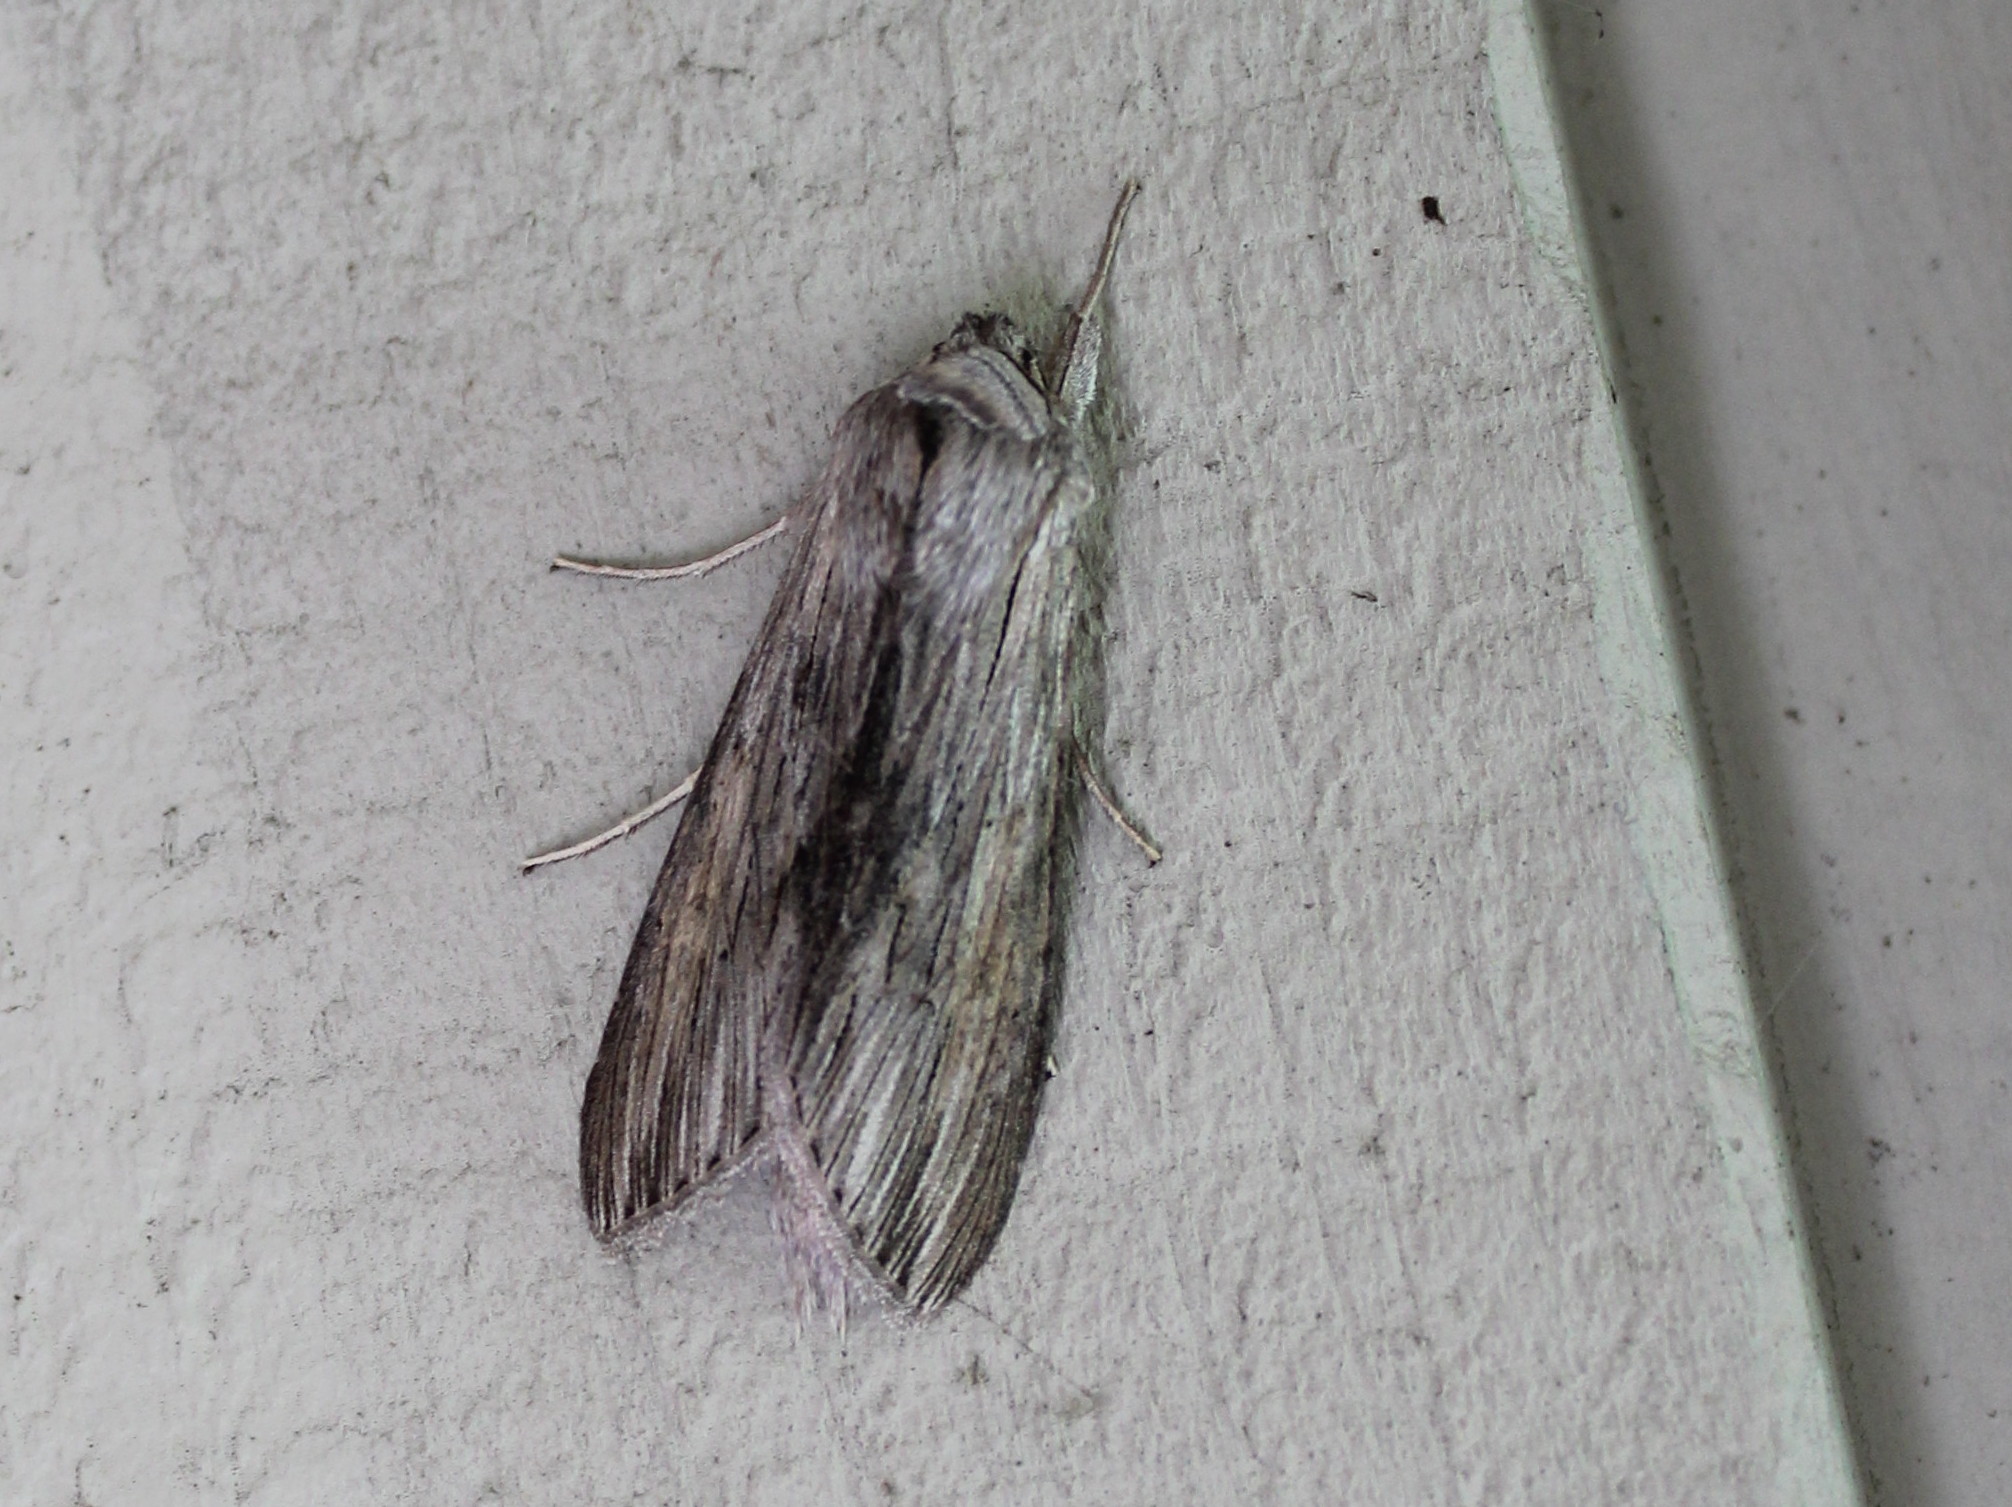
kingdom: Animalia
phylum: Arthropoda
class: Insecta
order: Lepidoptera
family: Noctuidae
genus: Cucullia
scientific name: Cucullia intermedia
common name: Goldenrod cutworm
